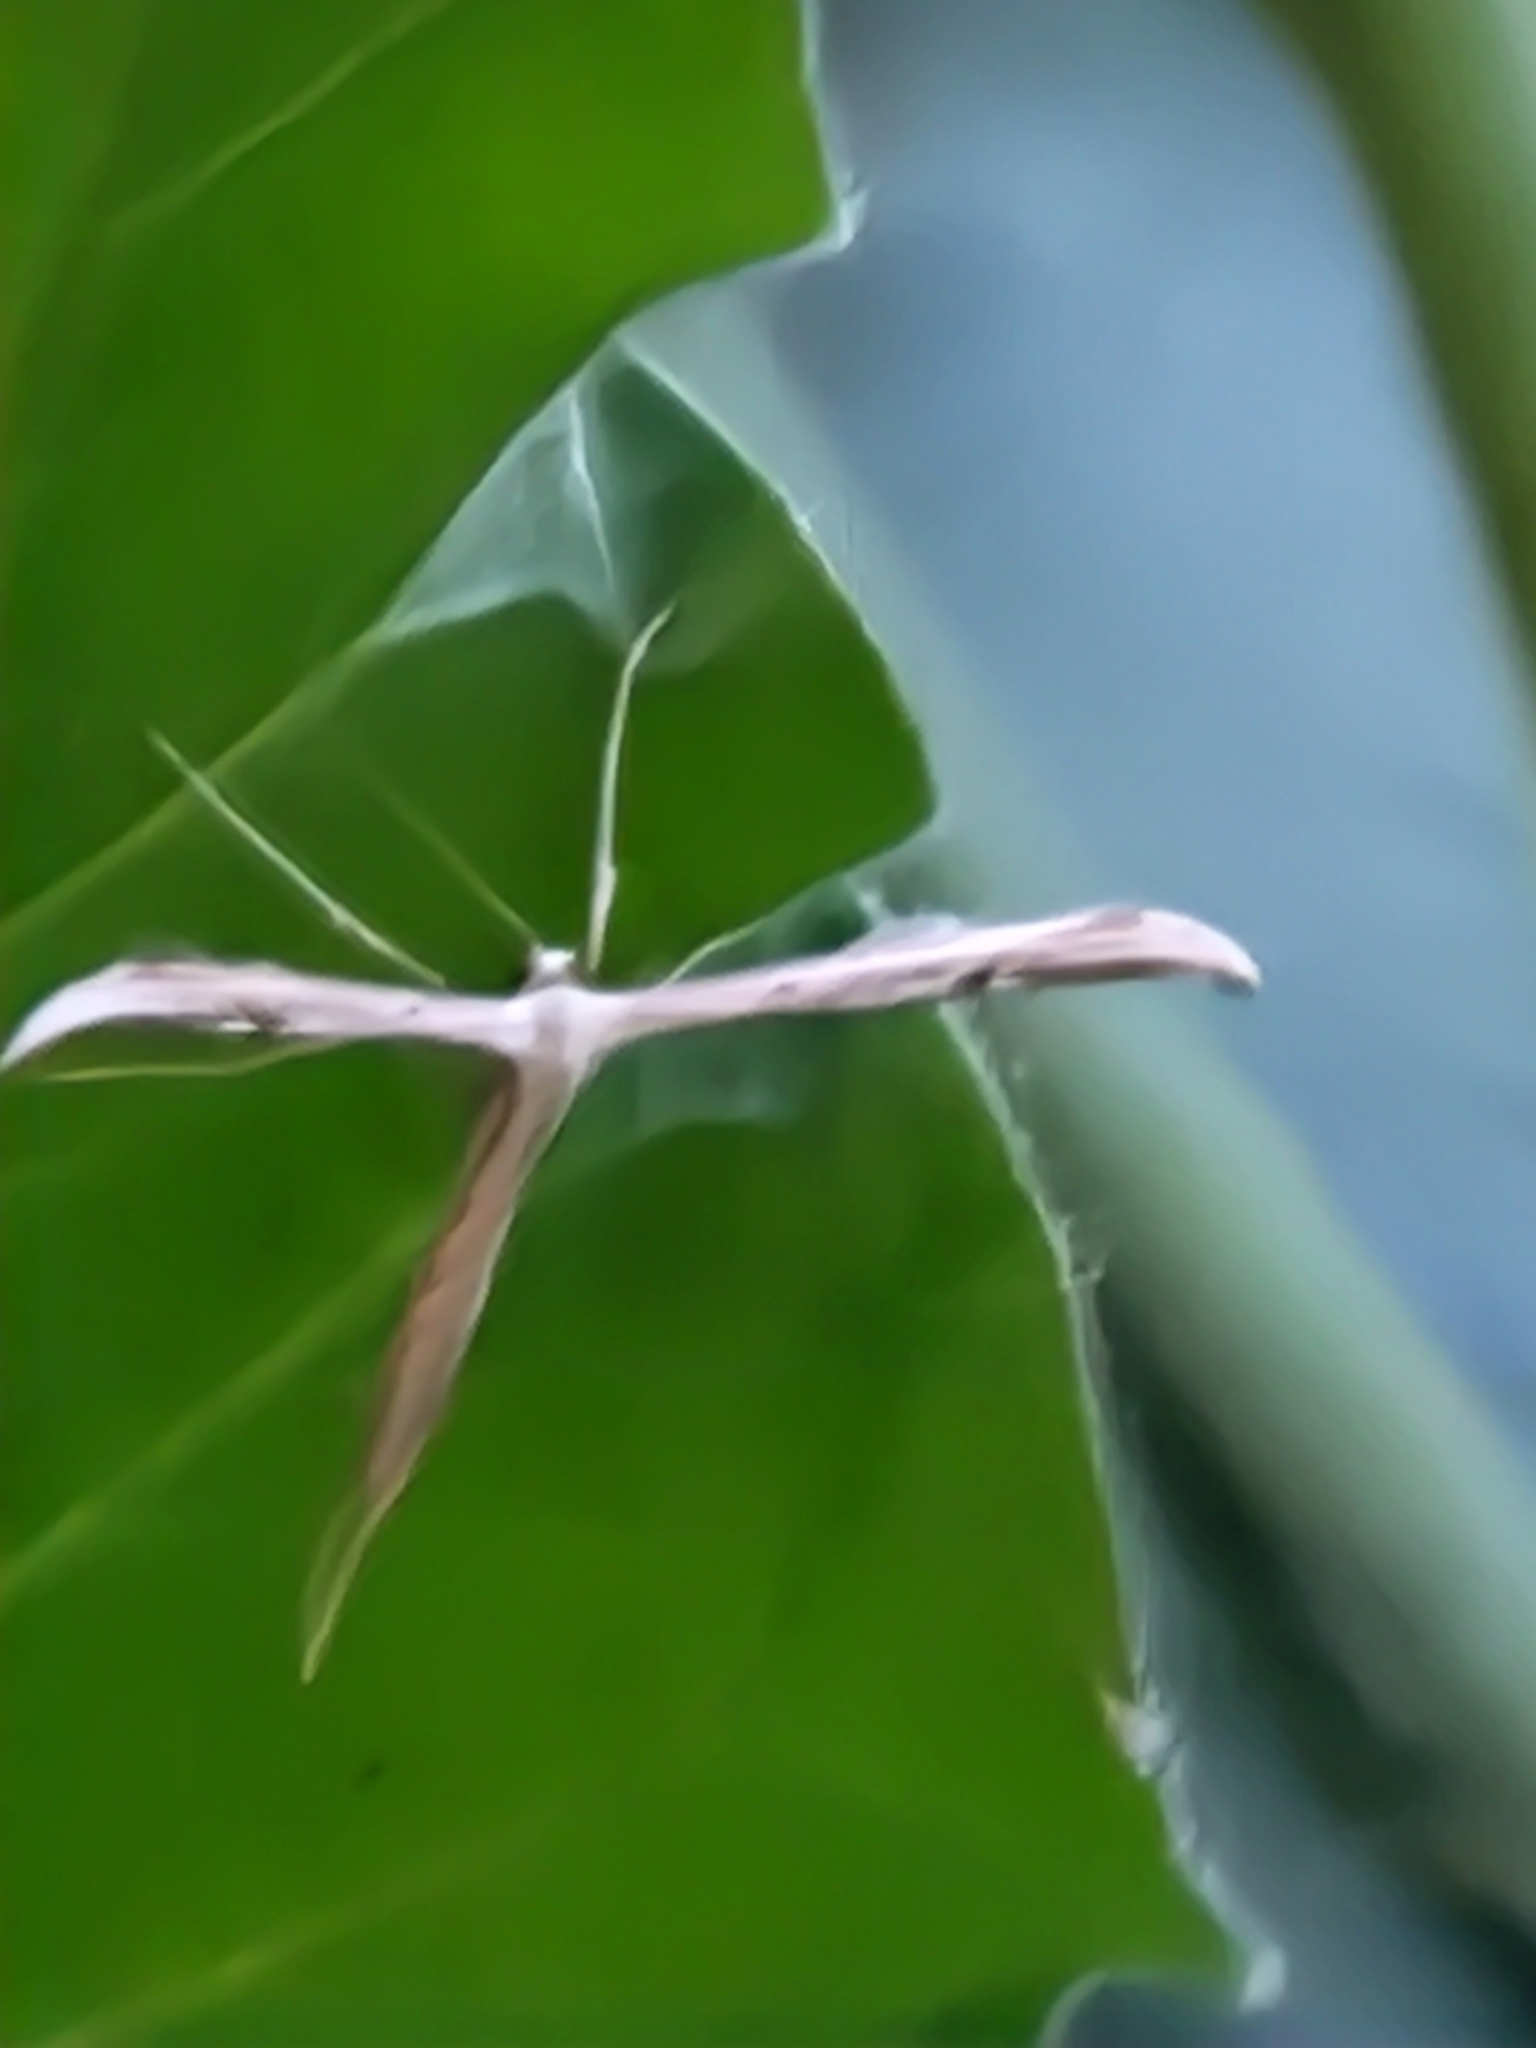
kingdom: Animalia
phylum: Arthropoda
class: Insecta
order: Lepidoptera
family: Pterophoridae
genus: Emmelina
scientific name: Emmelina monodactyla
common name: Common plume
